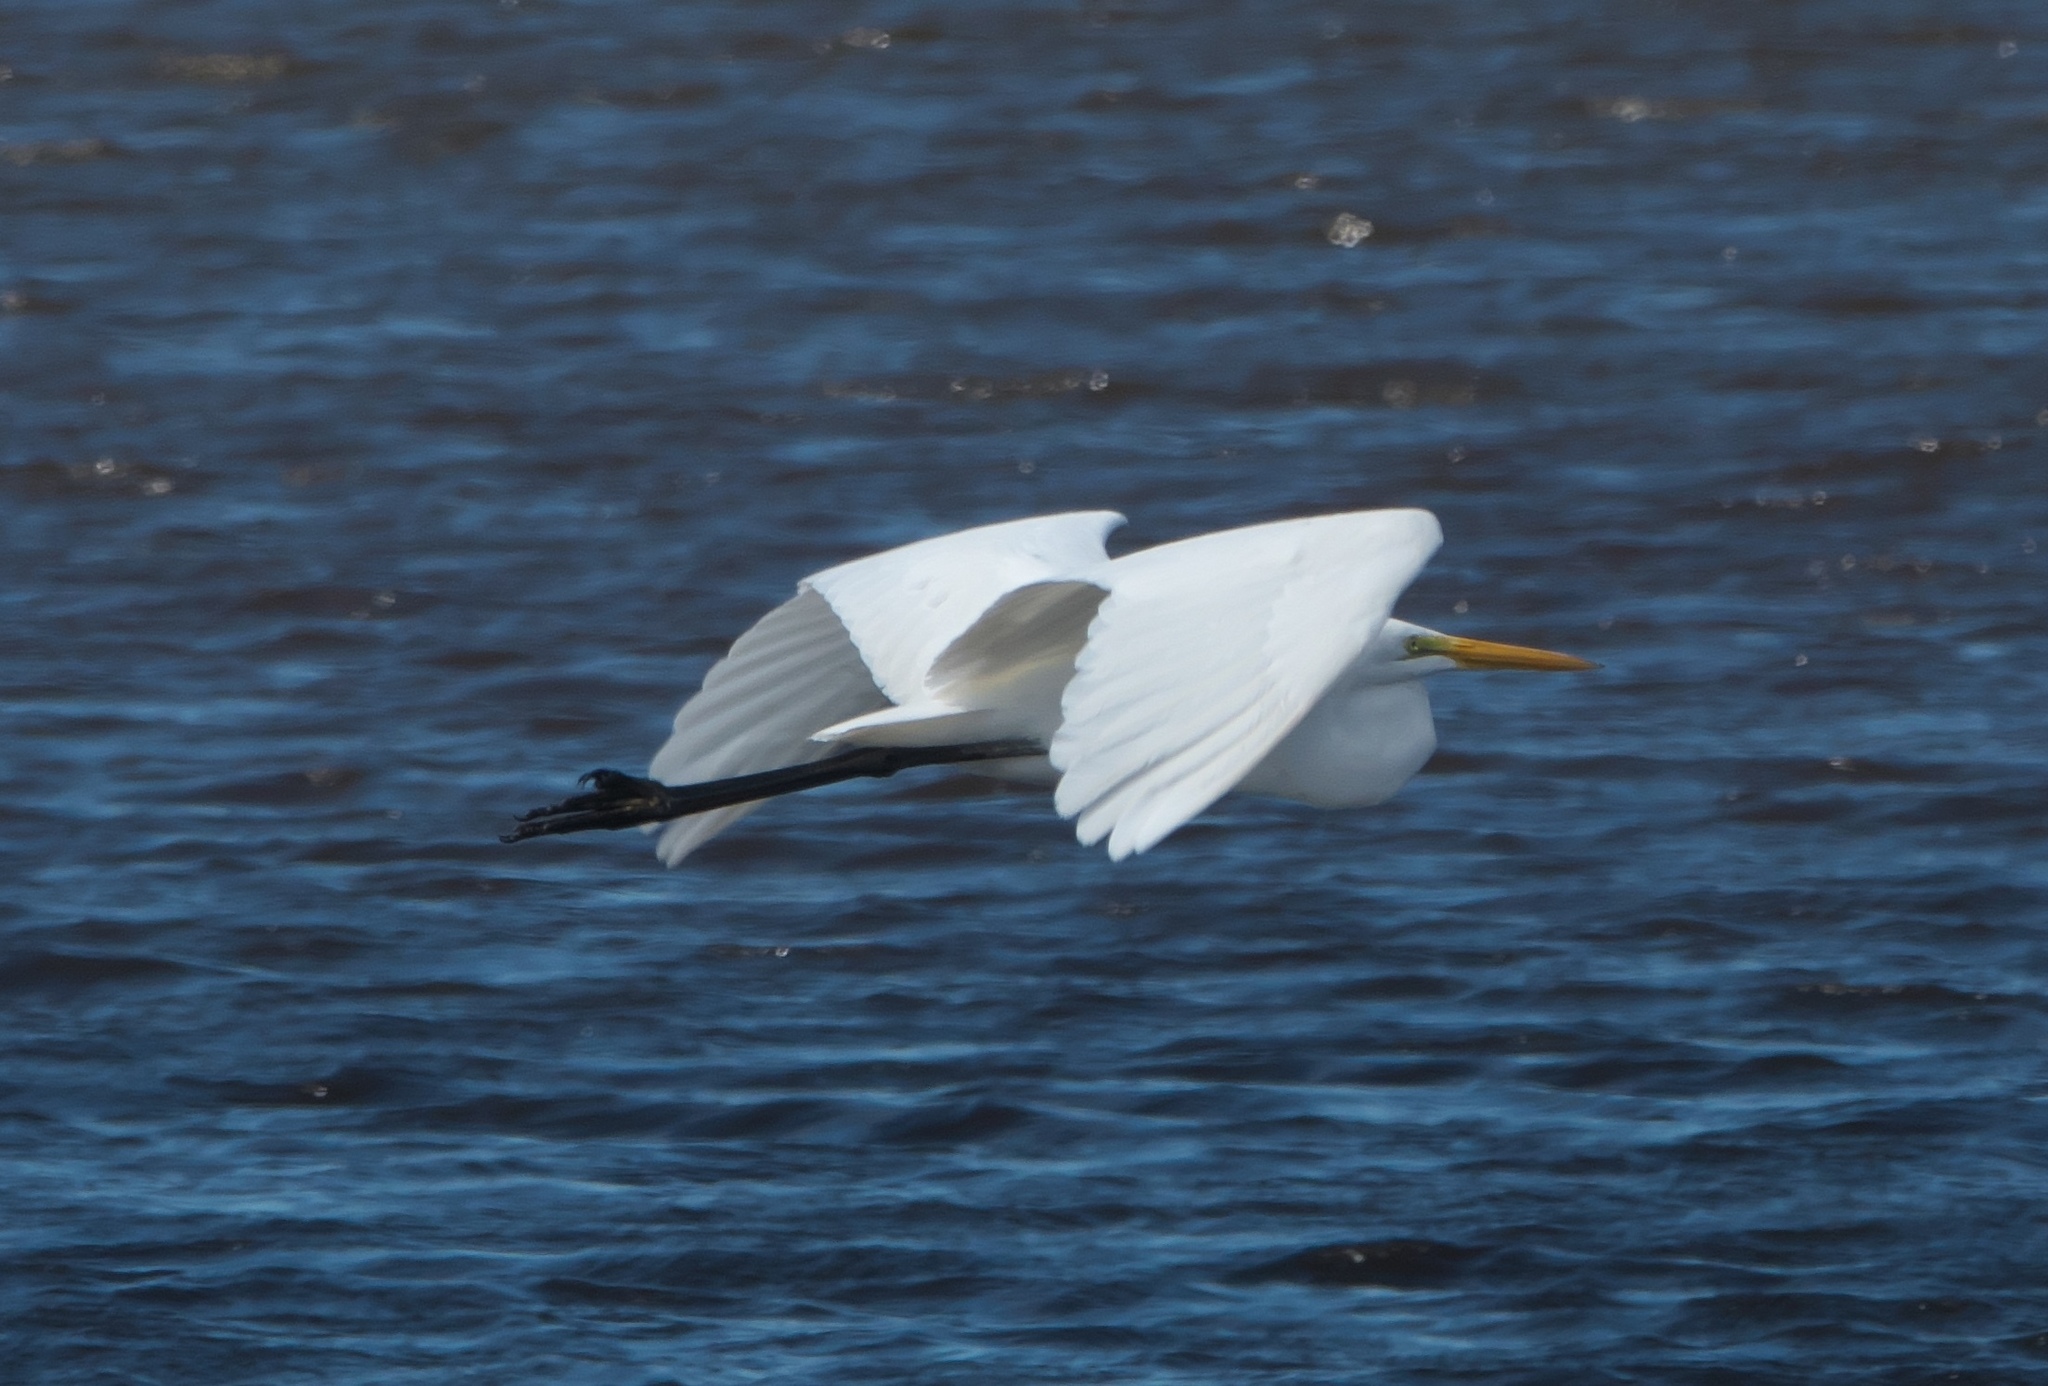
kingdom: Animalia
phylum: Chordata
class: Aves
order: Pelecaniformes
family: Ardeidae
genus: Ardea
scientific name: Ardea alba
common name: Great egret
